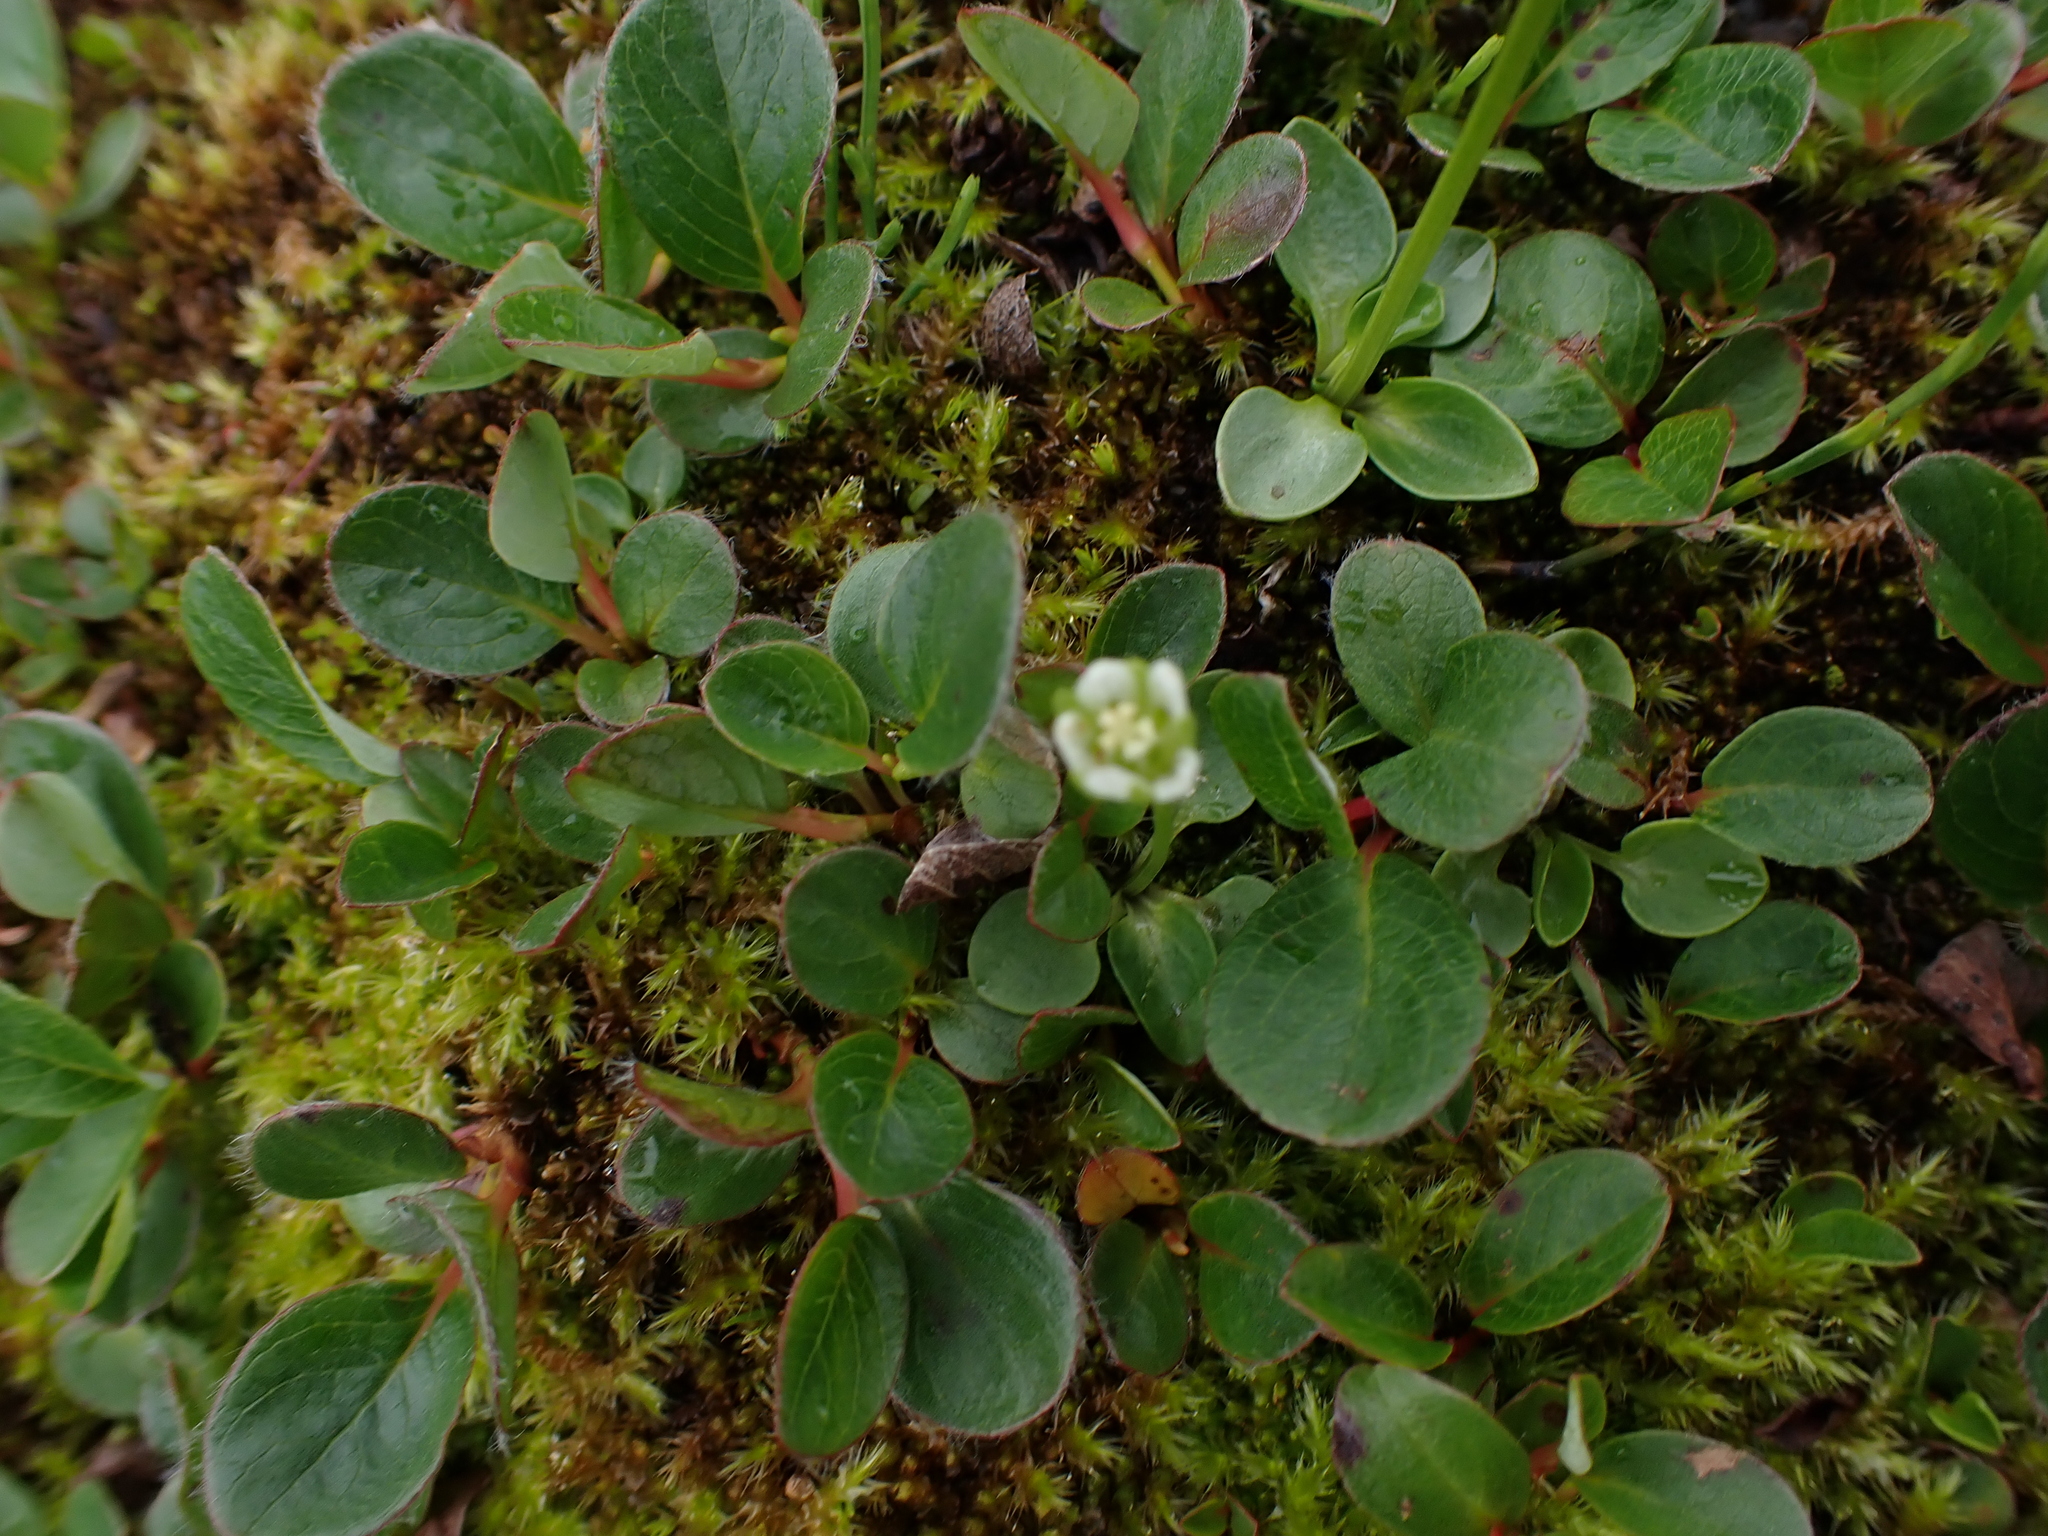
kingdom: Plantae
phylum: Tracheophyta
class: Magnoliopsida
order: Celastrales
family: Parnassiaceae
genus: Parnassia
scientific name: Parnassia kotzebuei
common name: Kotzebue's grass-of-parnassus
